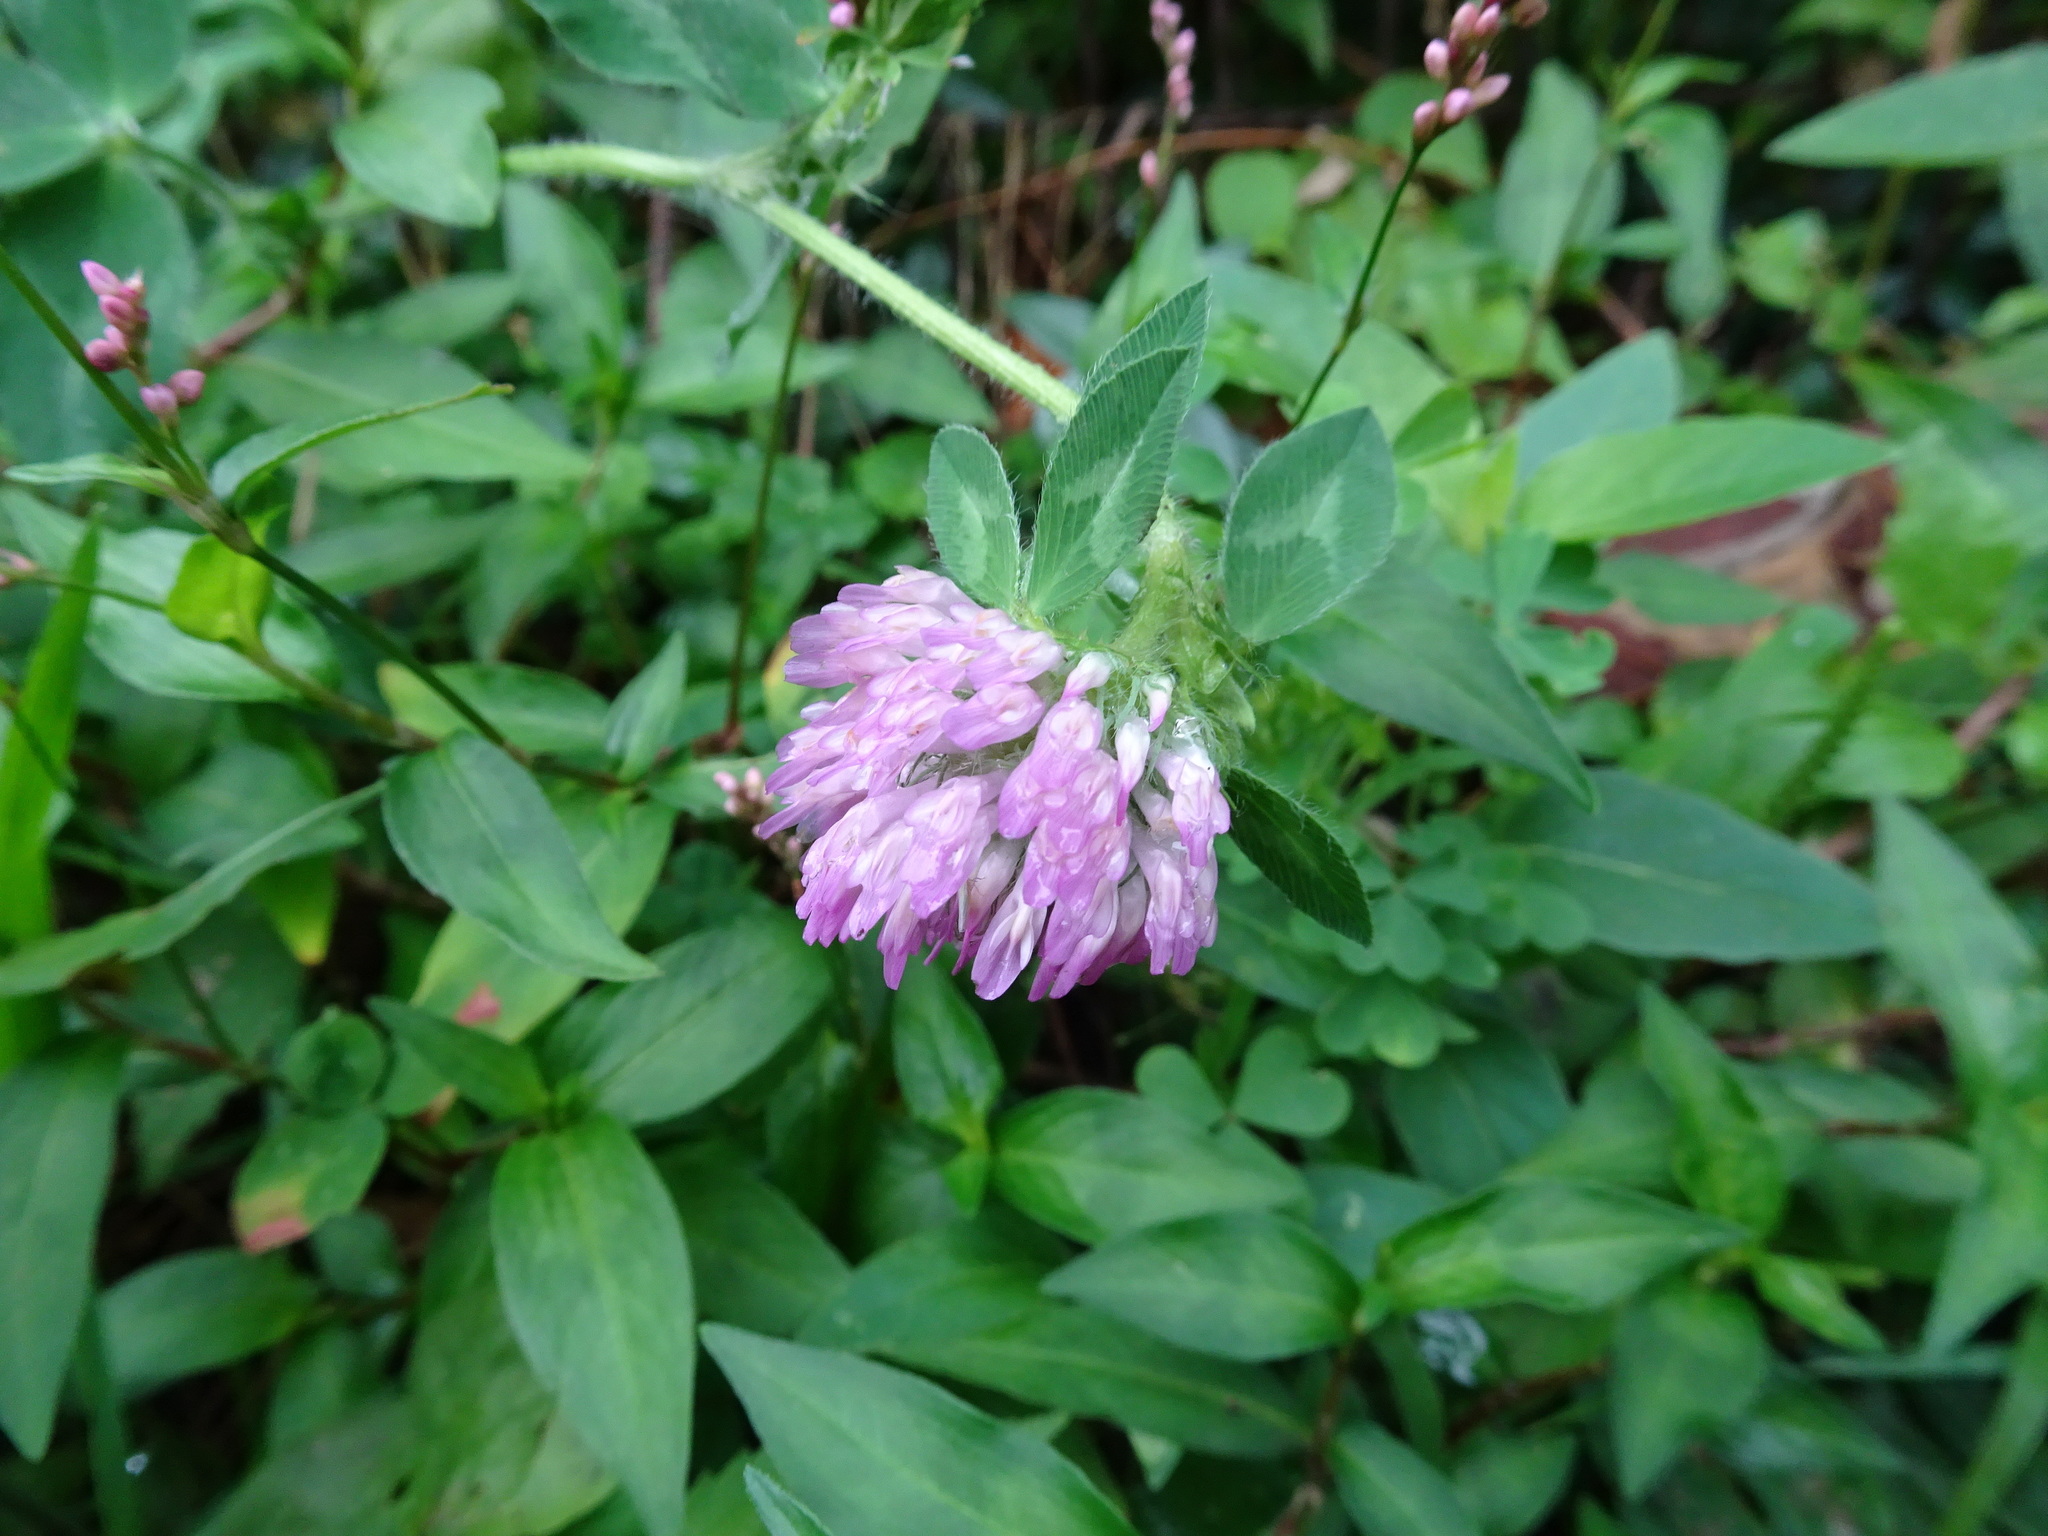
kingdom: Plantae
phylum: Tracheophyta
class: Magnoliopsida
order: Fabales
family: Fabaceae
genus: Trifolium
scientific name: Trifolium pratense
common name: Red clover
